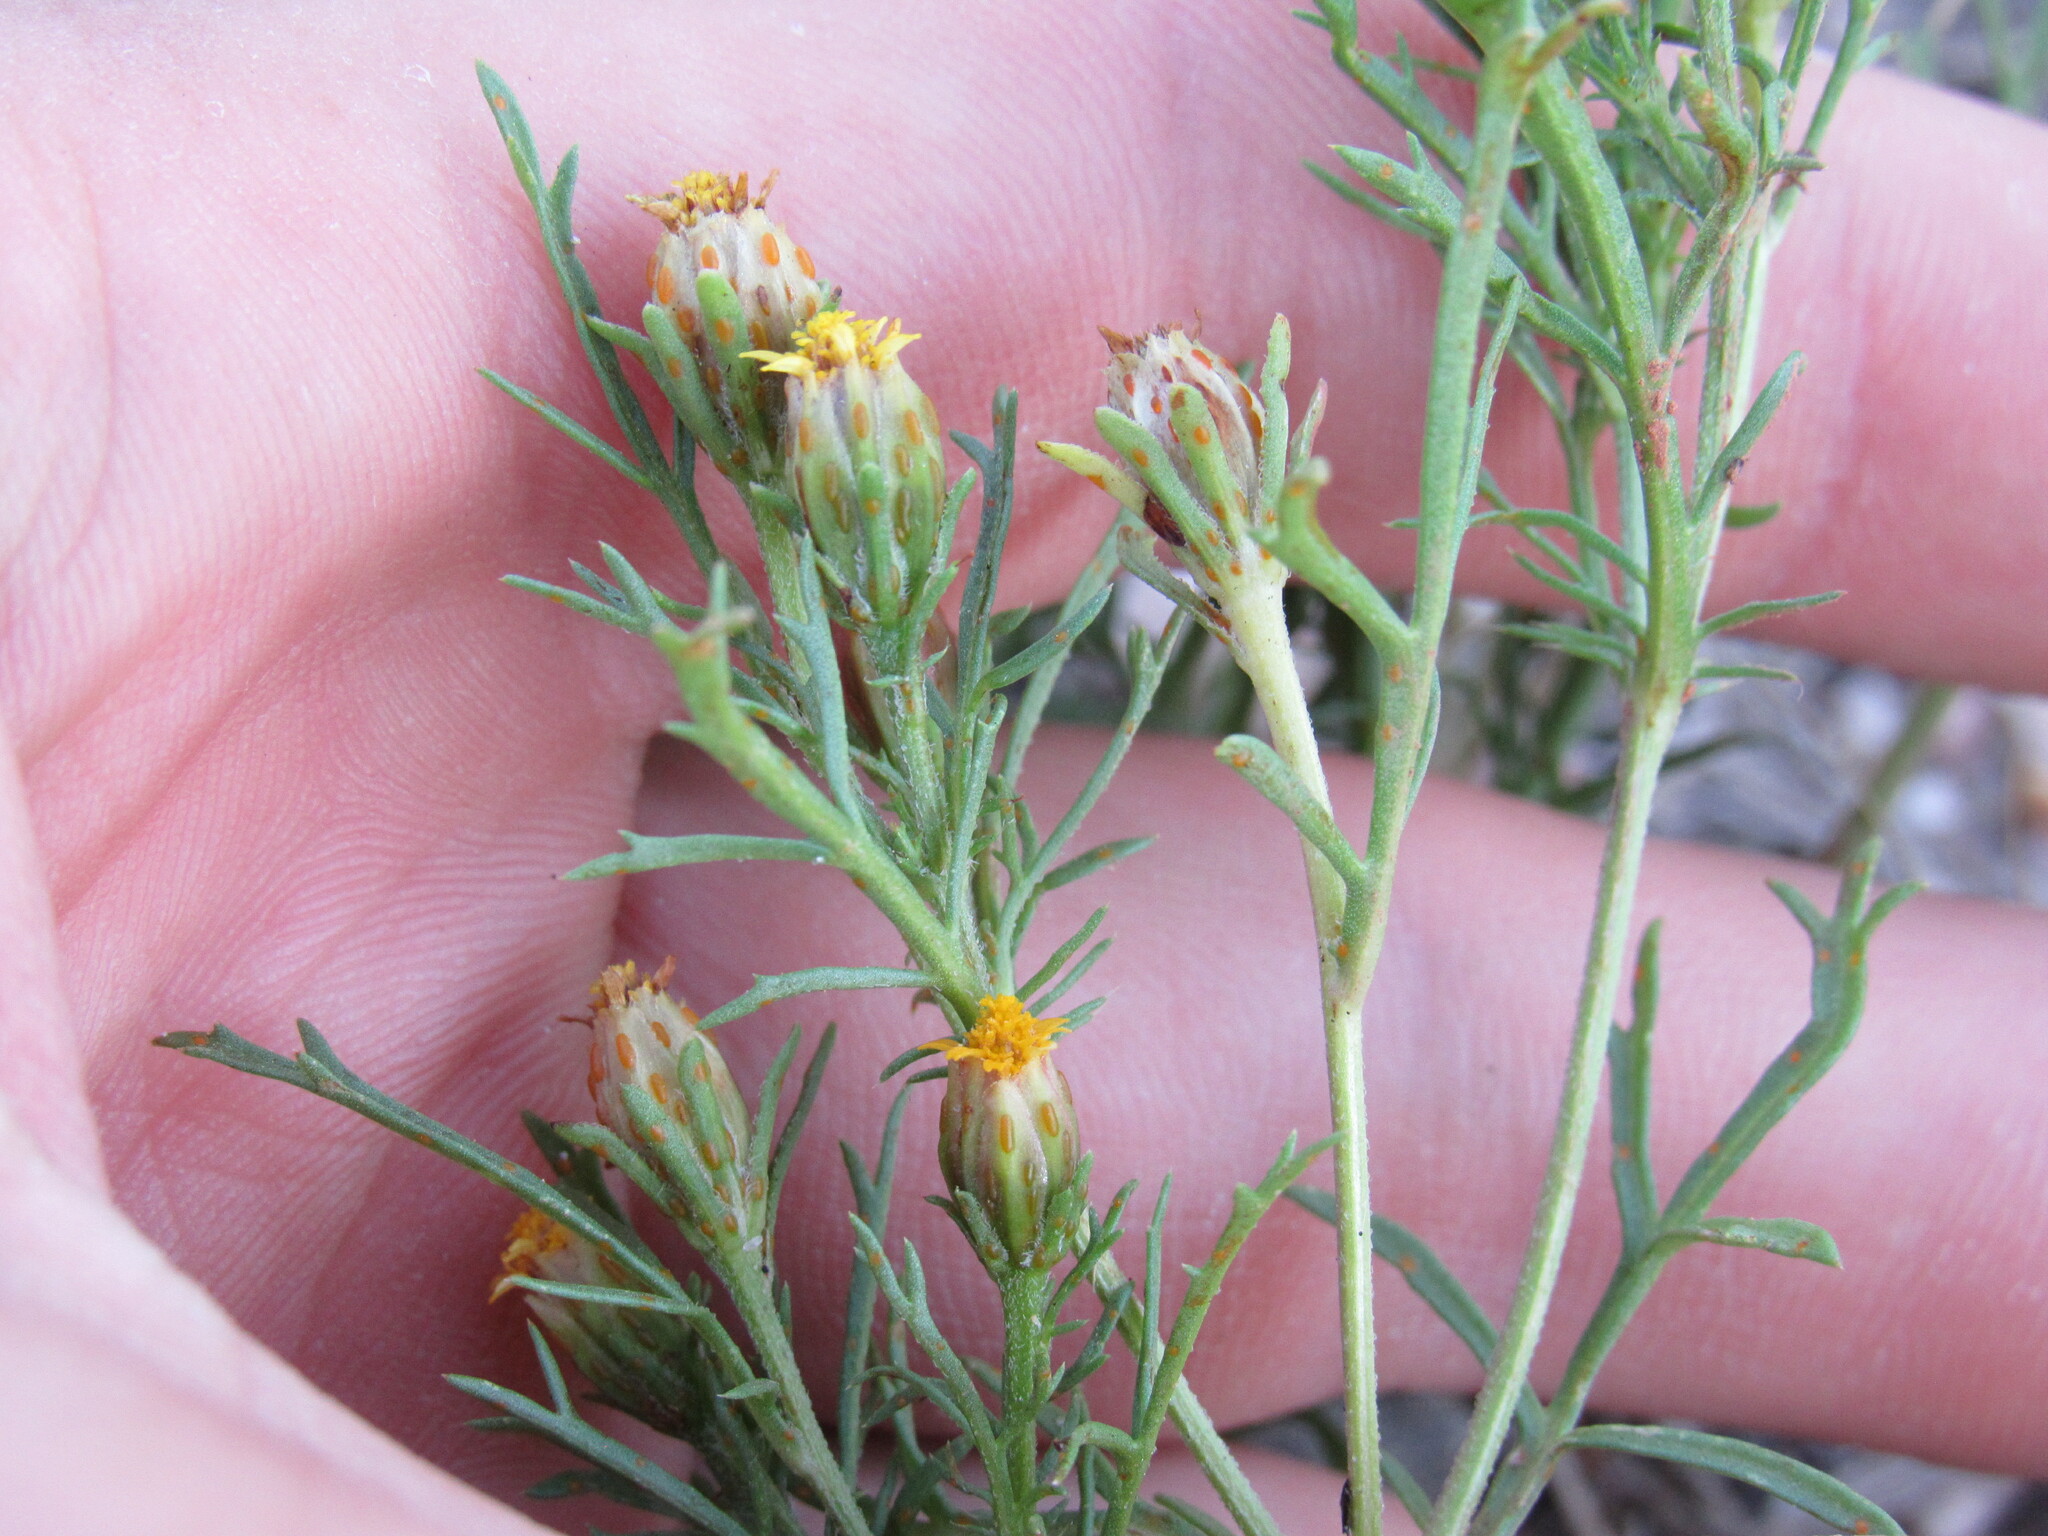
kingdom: Plantae
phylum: Tracheophyta
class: Magnoliopsida
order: Asterales
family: Asteraceae
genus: Dyssodia
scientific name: Dyssodia papposa
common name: Dogweed
